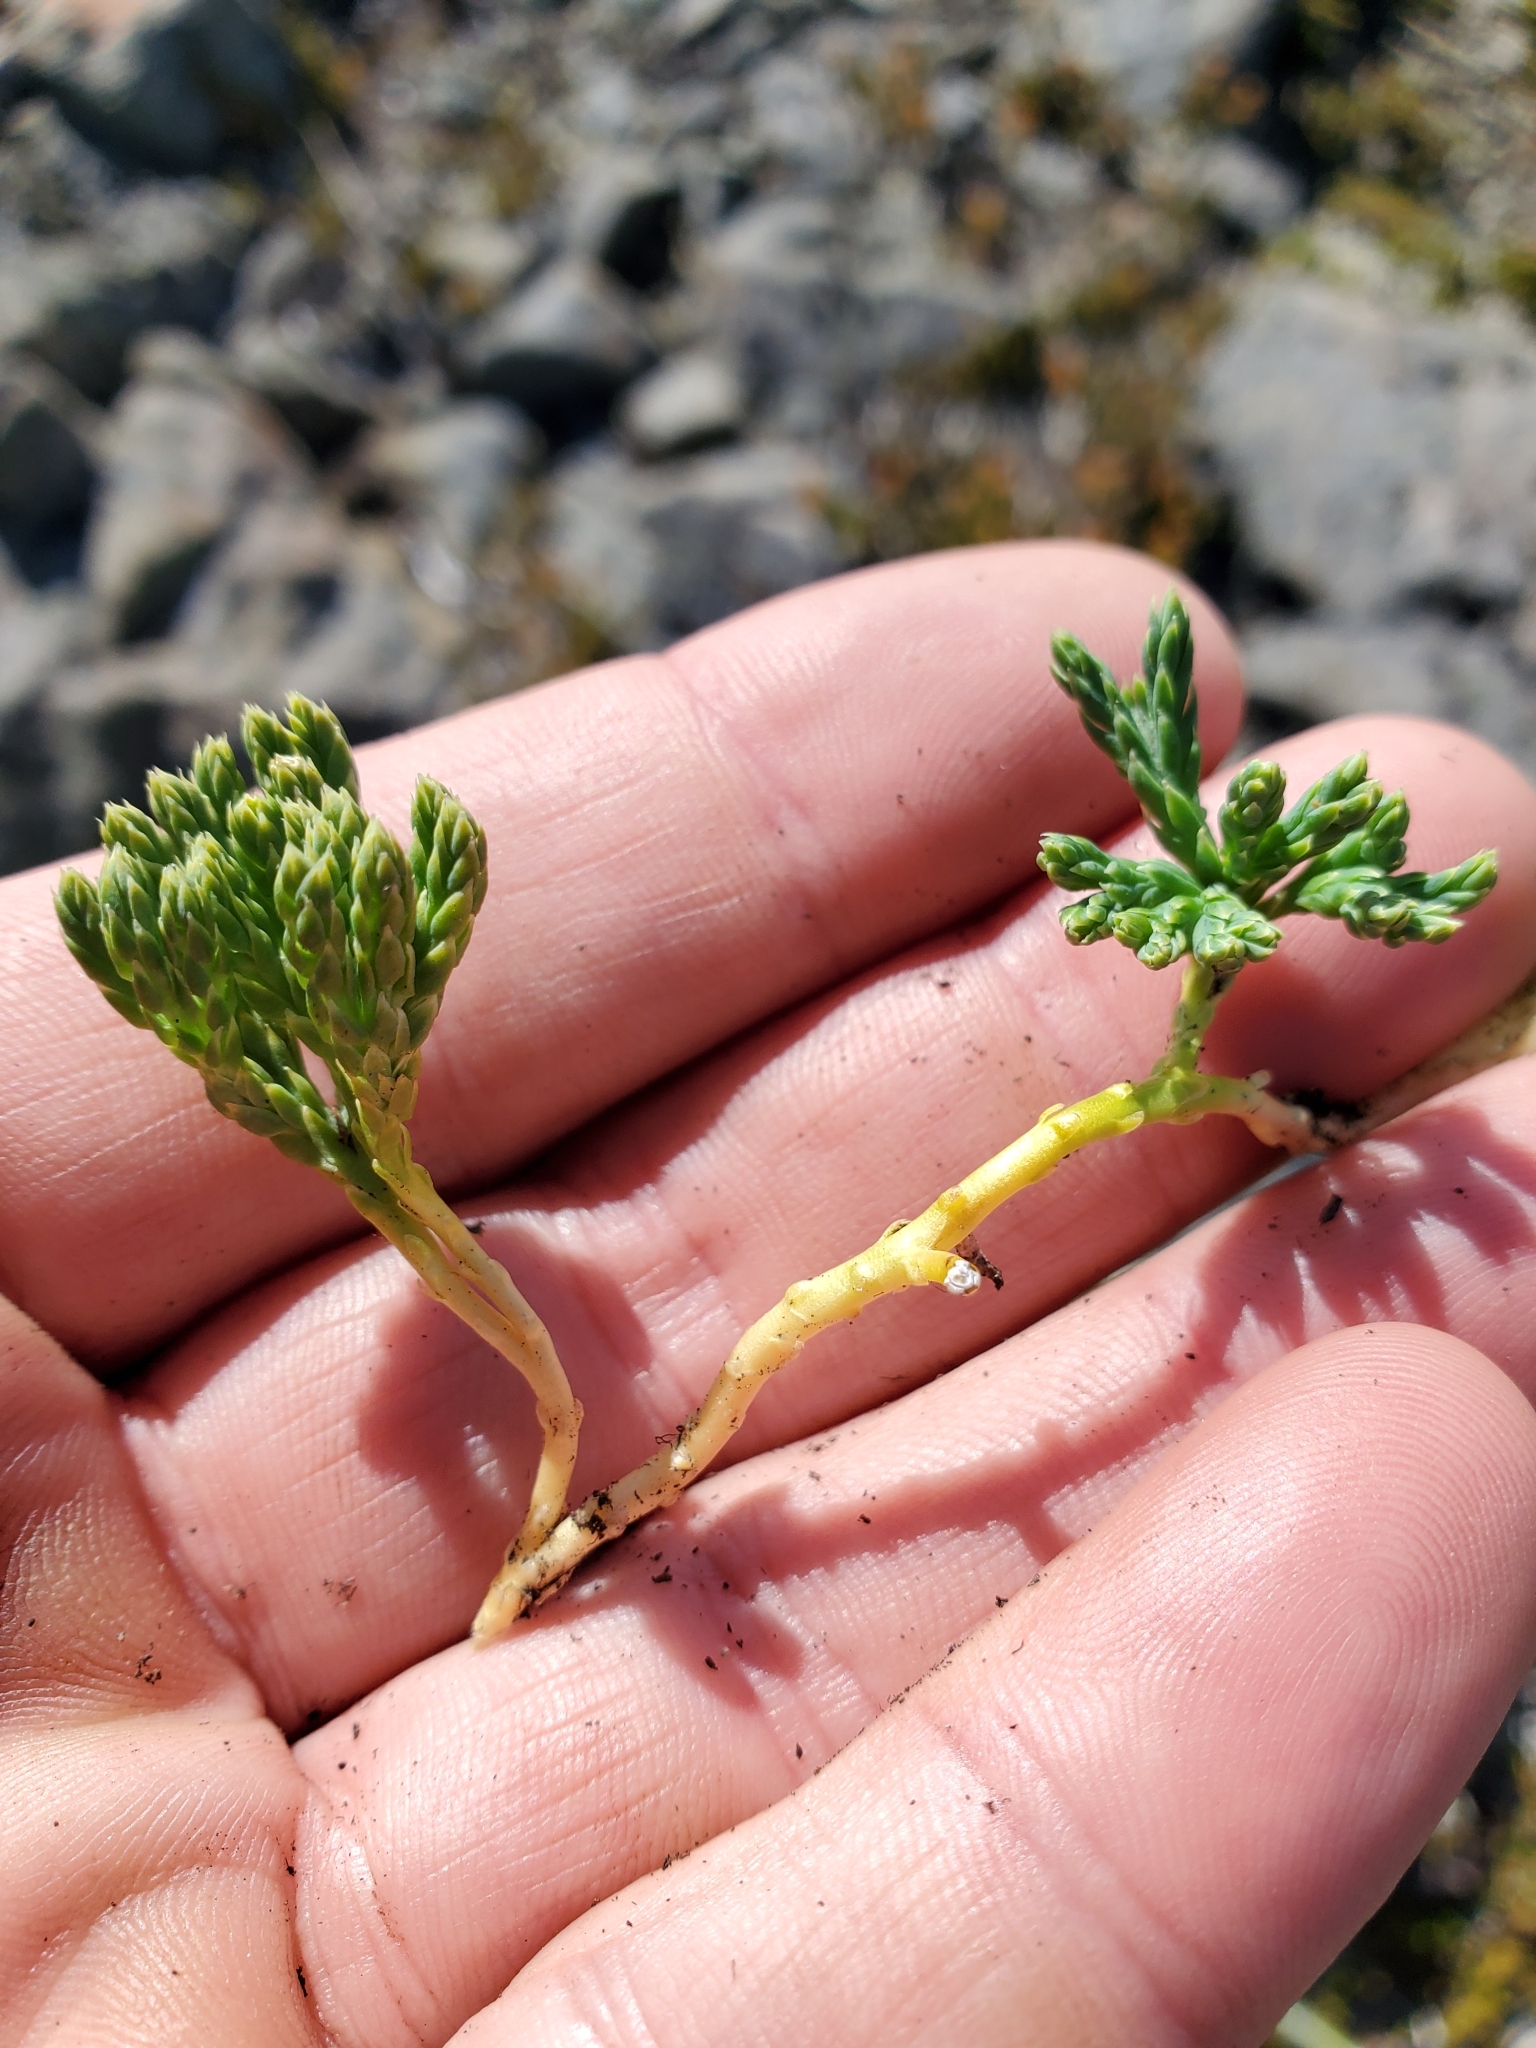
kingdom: Plantae
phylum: Tracheophyta
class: Lycopodiopsida
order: Lycopodiales
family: Lycopodiaceae
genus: Diphasiastrum
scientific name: Diphasiastrum alpinum
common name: Alpine clubmoss
